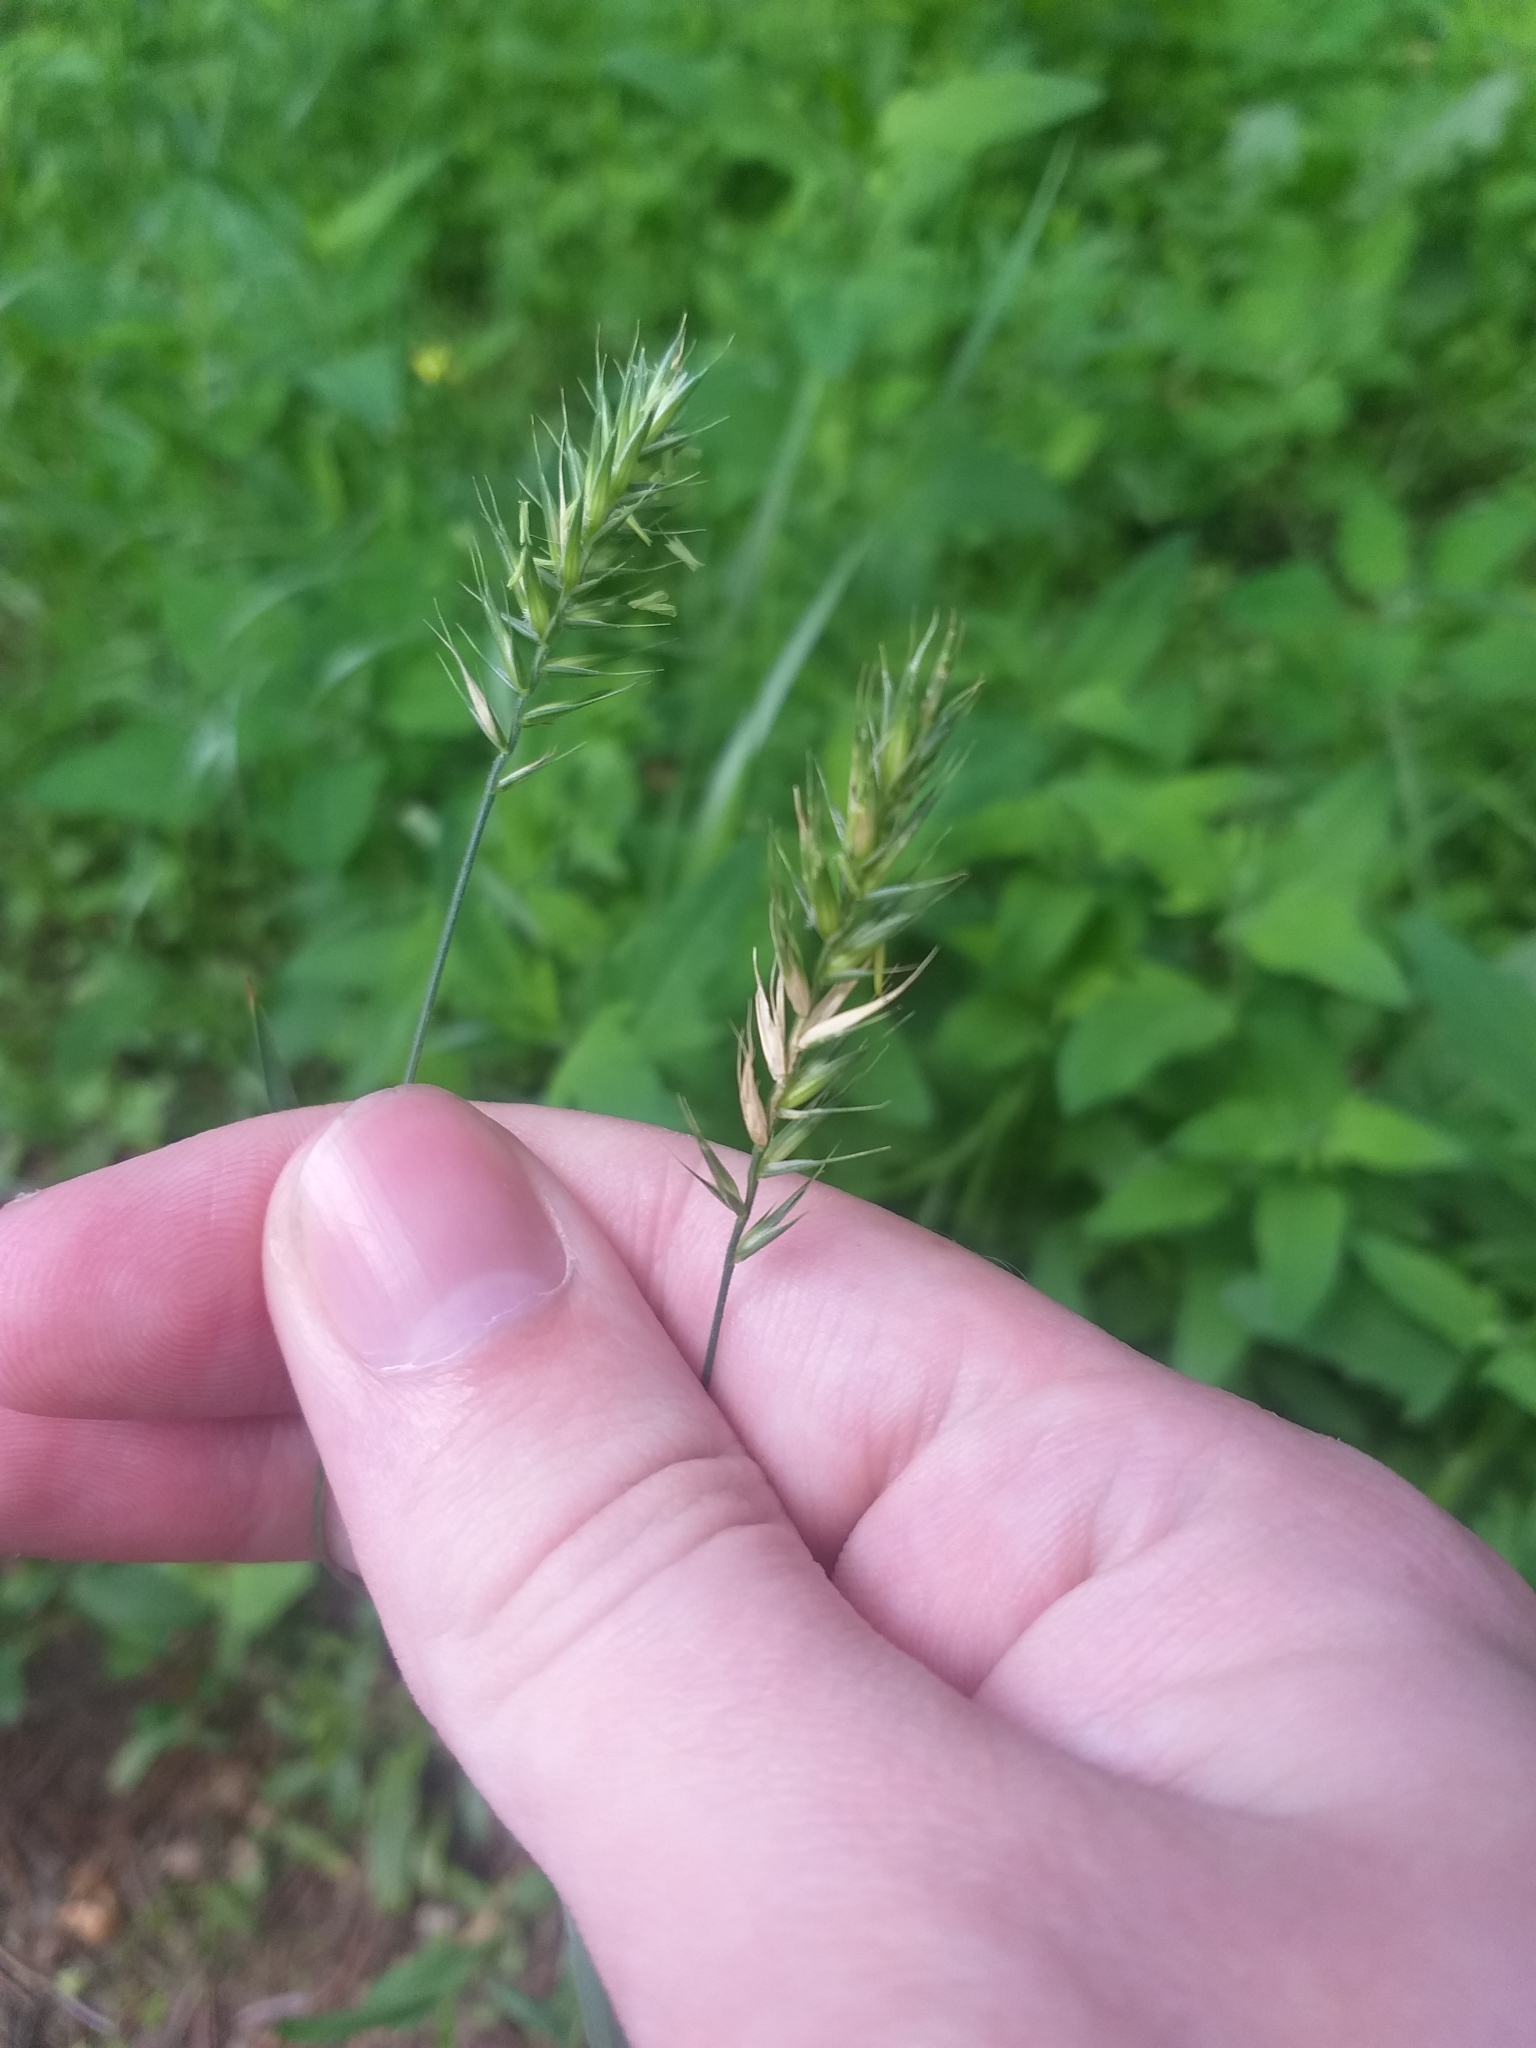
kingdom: Plantae
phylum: Tracheophyta
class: Liliopsida
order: Poales
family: Poaceae
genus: Agropyron
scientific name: Agropyron cristatum
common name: Crested wheatgrass
